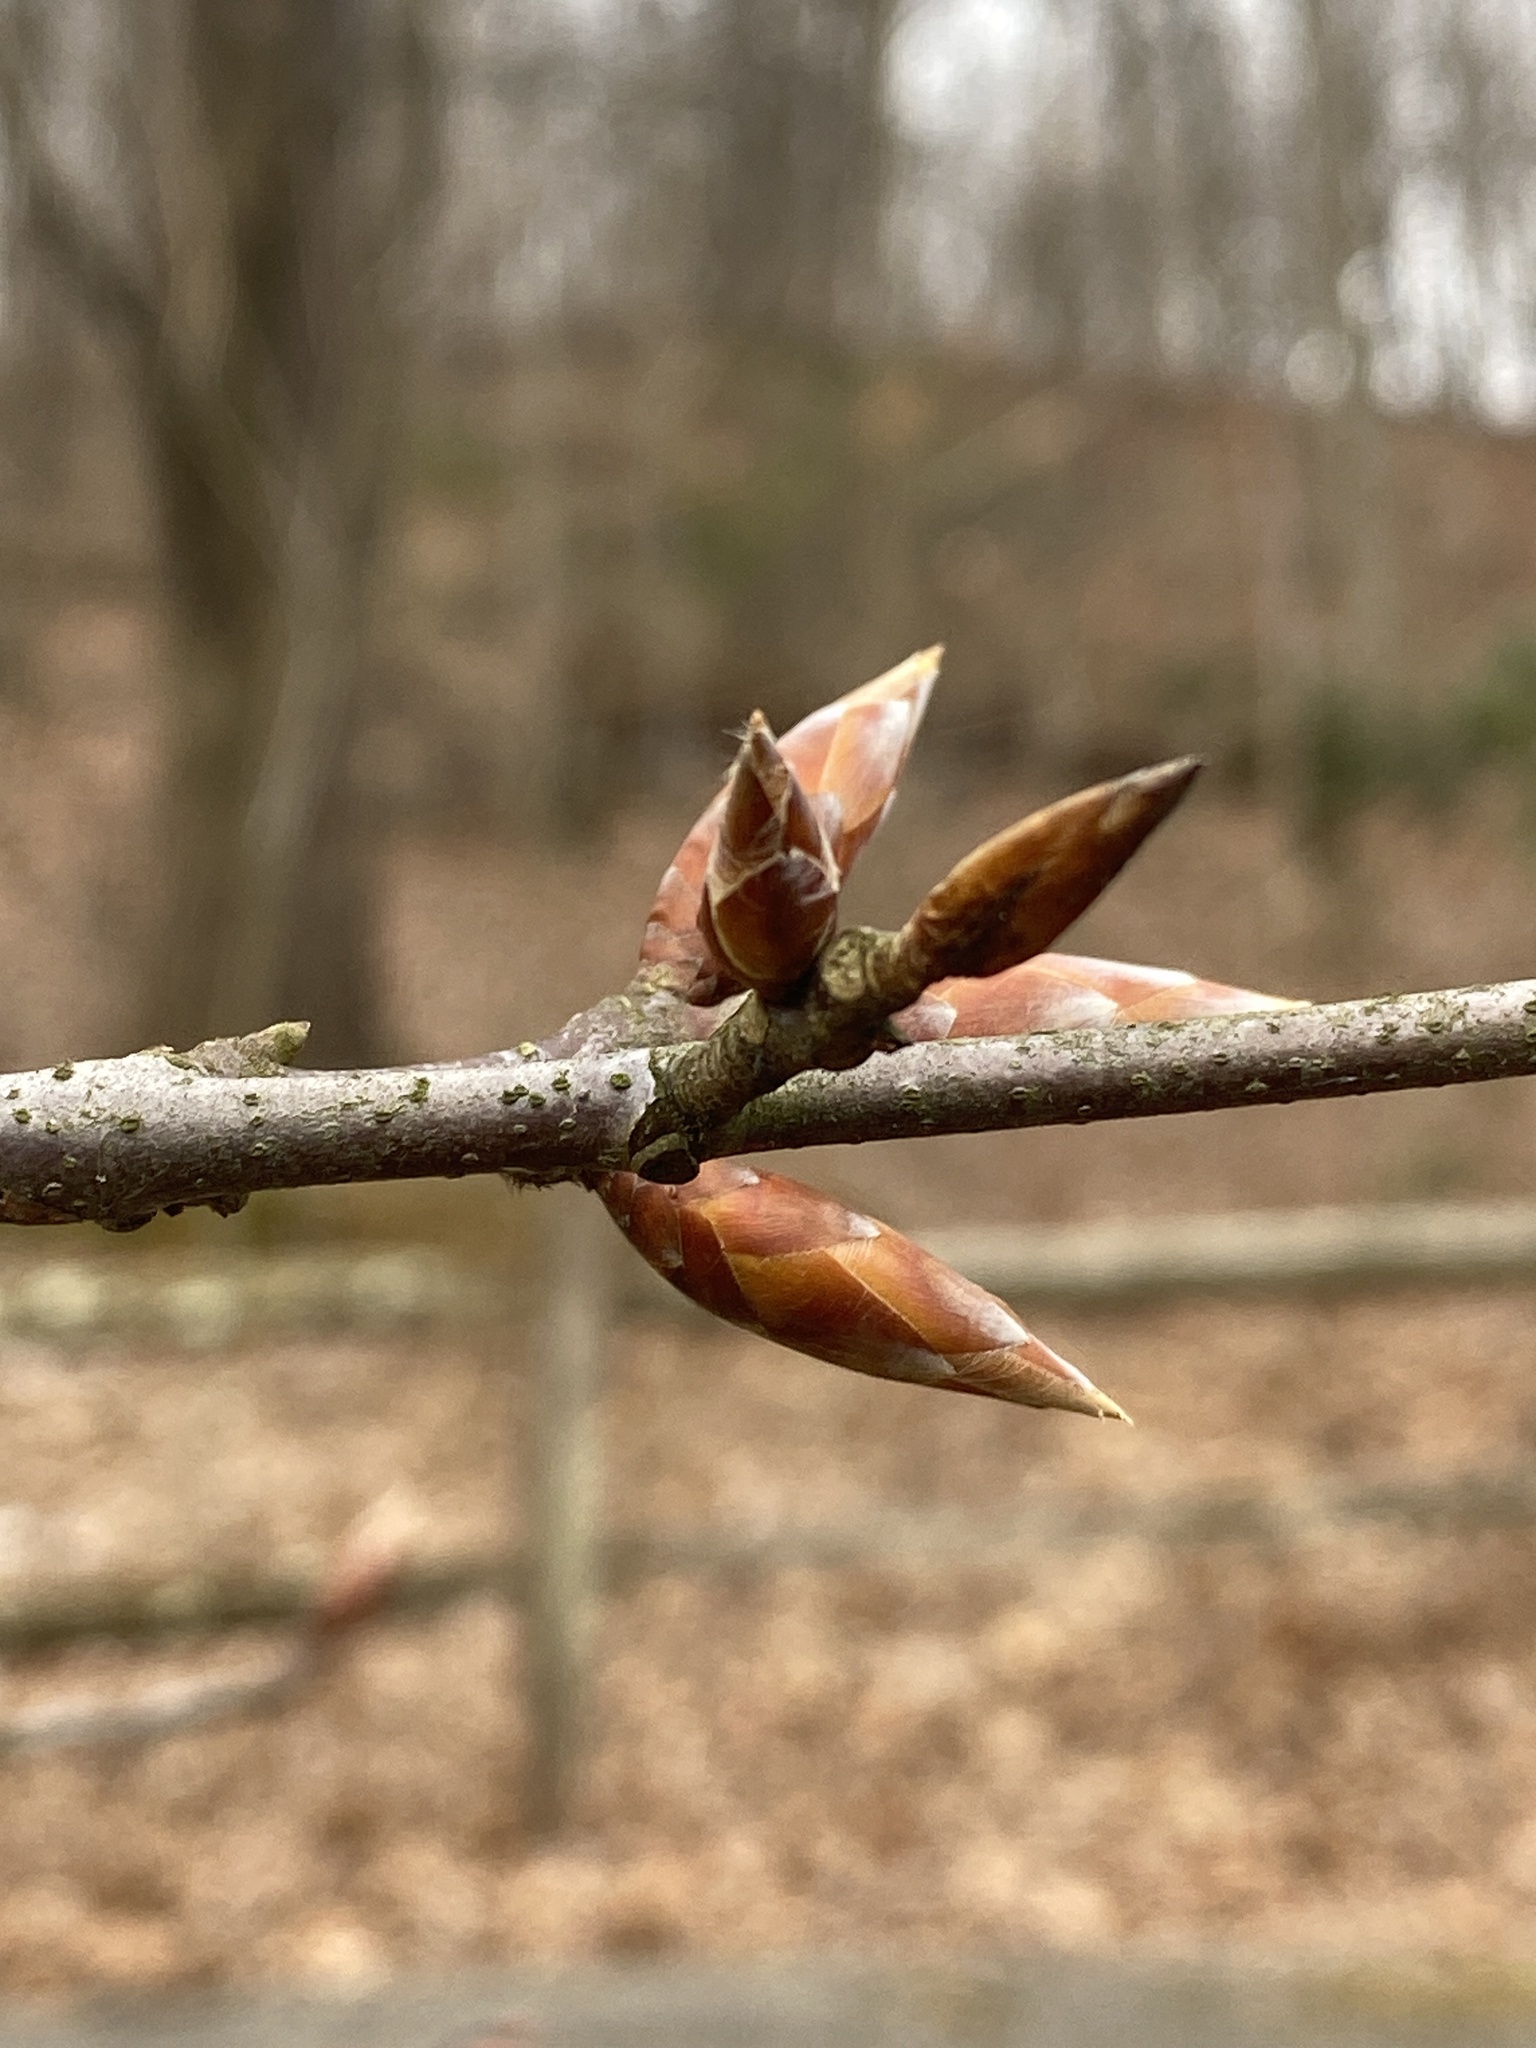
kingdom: Plantae
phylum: Tracheophyta
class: Magnoliopsida
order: Fagales
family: Fagaceae
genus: Fagus
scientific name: Fagus grandifolia
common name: American beech
